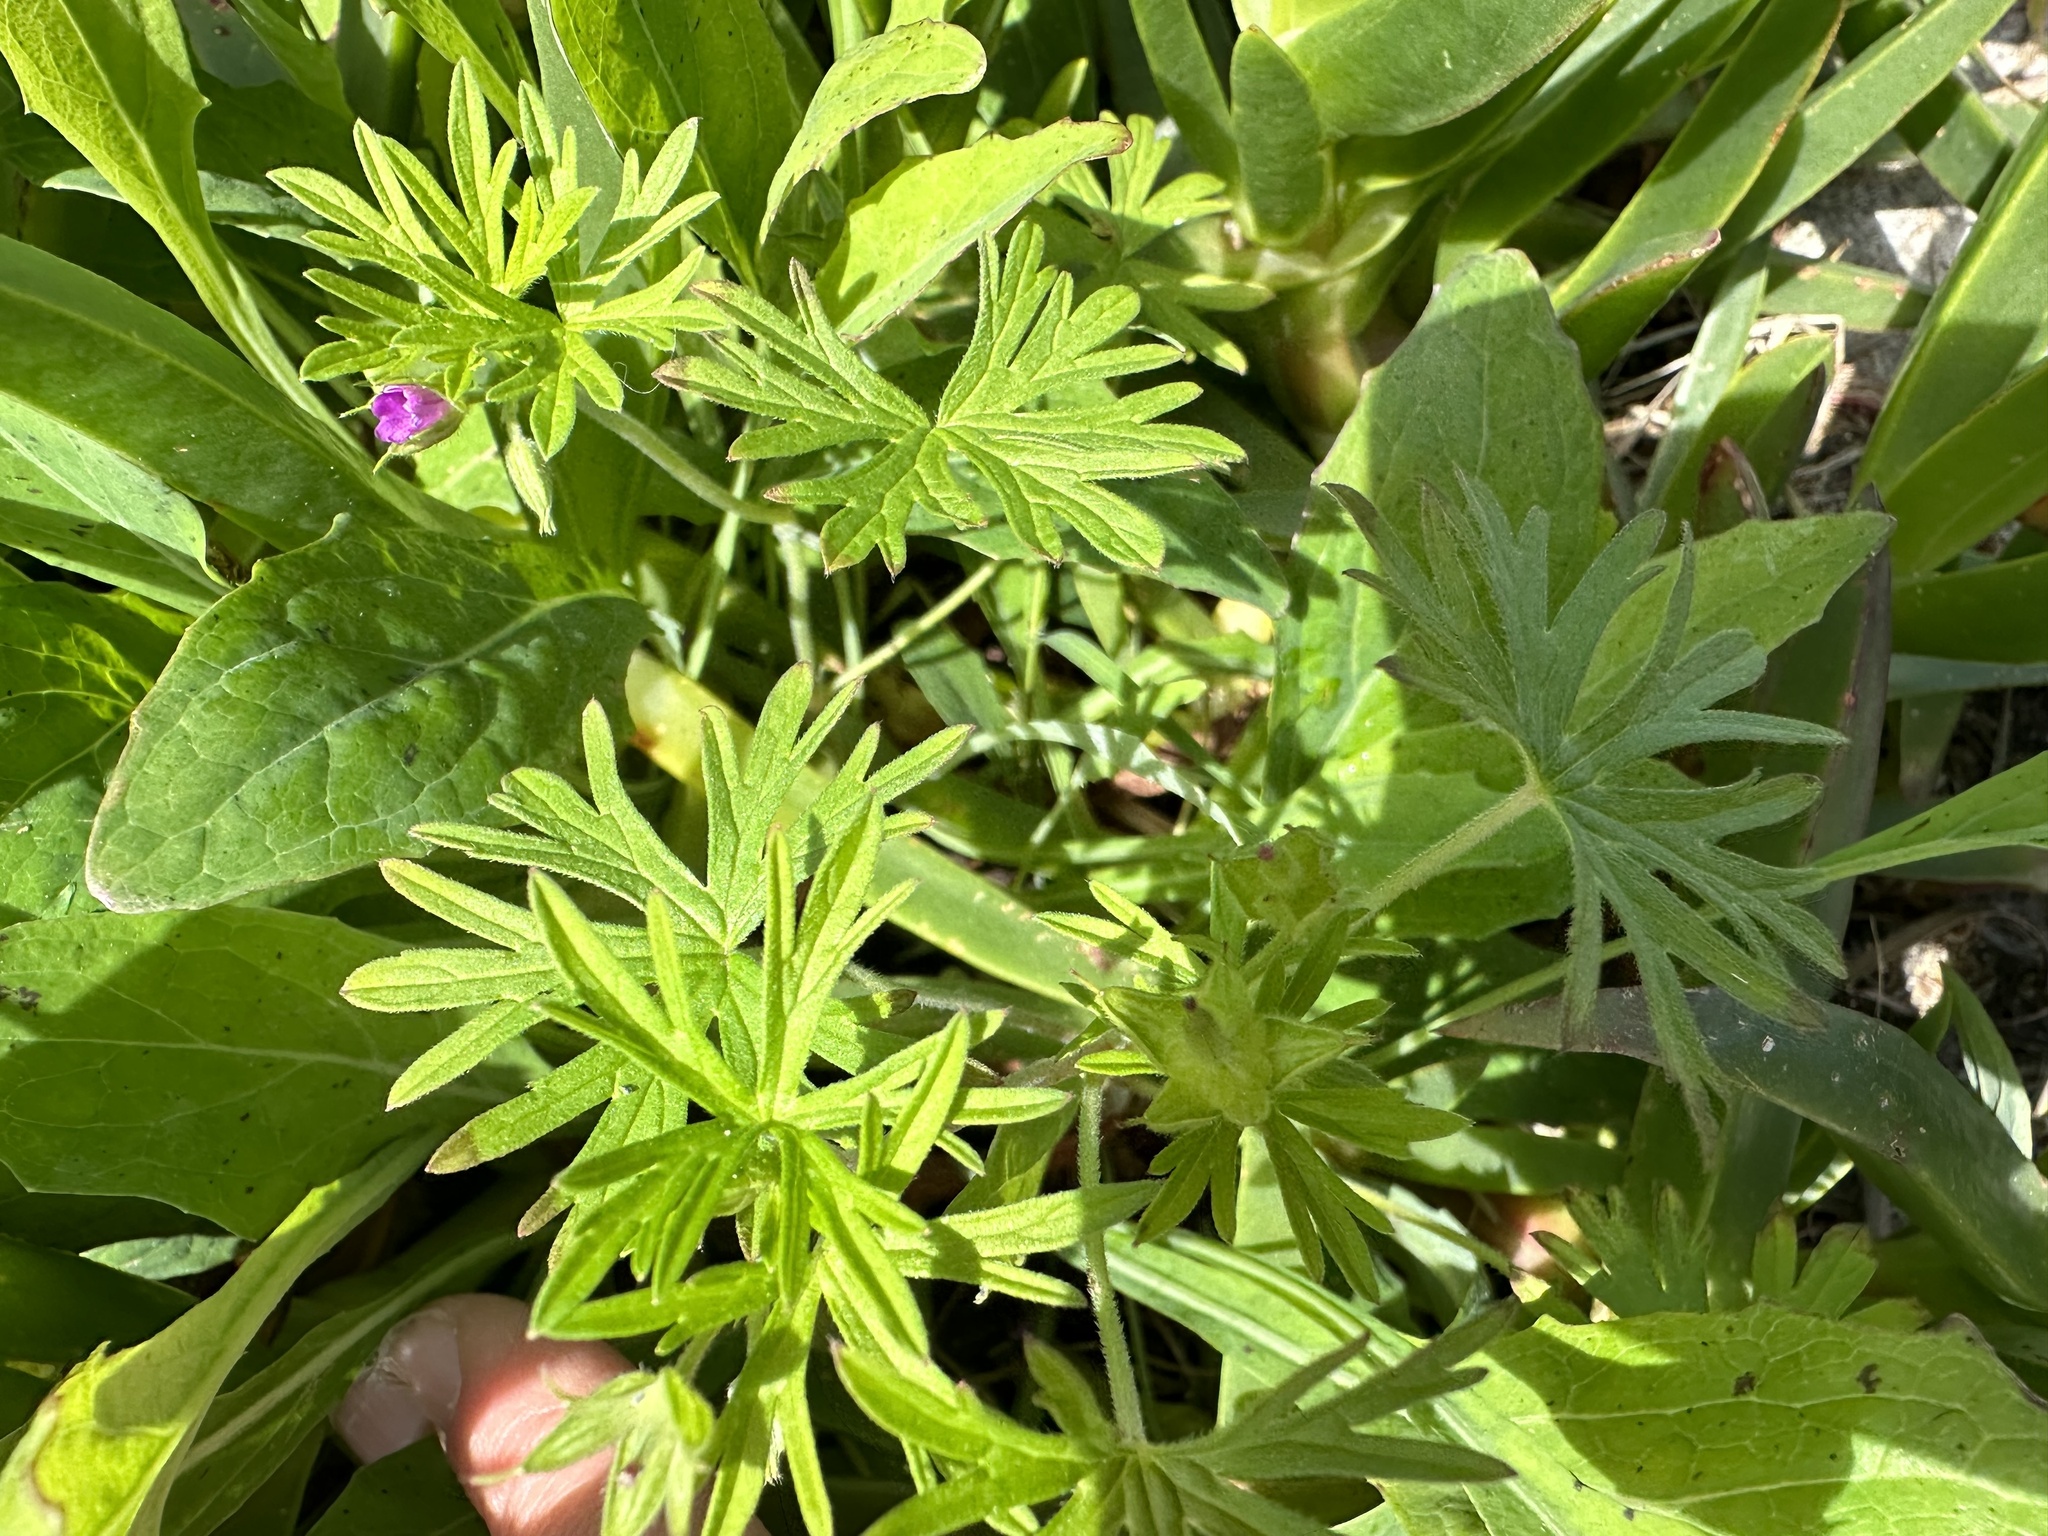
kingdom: Plantae
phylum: Tracheophyta
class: Magnoliopsida
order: Geraniales
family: Geraniaceae
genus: Geranium
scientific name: Geranium dissectum
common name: Cut-leaved crane's-bill
